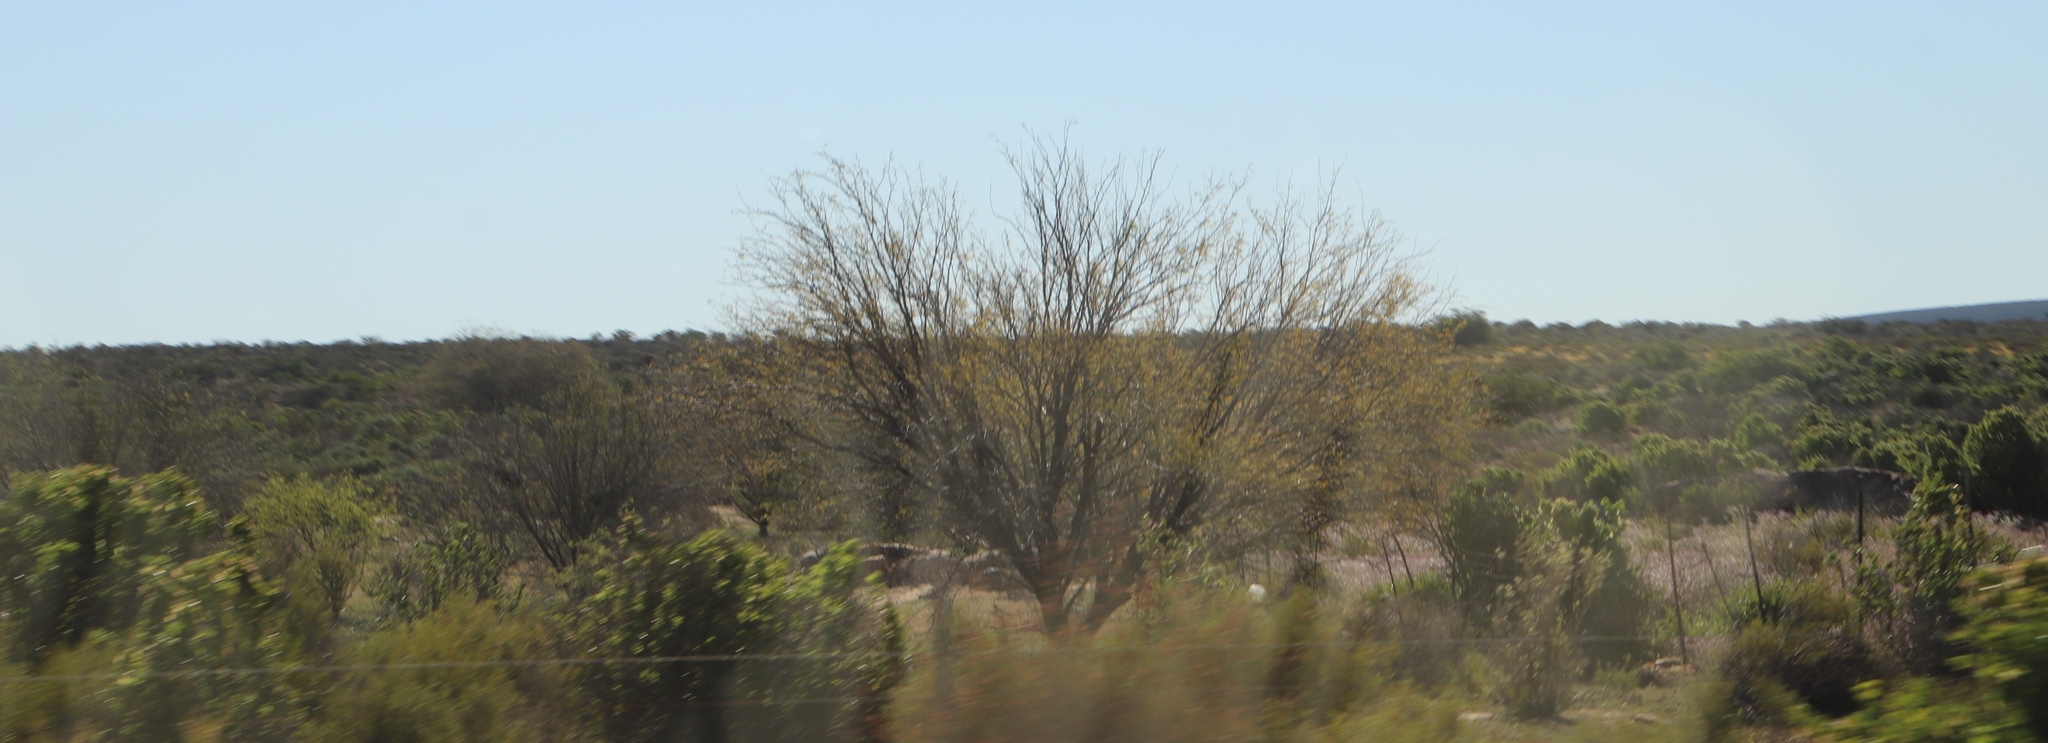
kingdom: Plantae
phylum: Tracheophyta
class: Magnoliopsida
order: Fabales
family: Fabaceae
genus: Prosopis
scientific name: Prosopis pubescens
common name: Screw-bean
